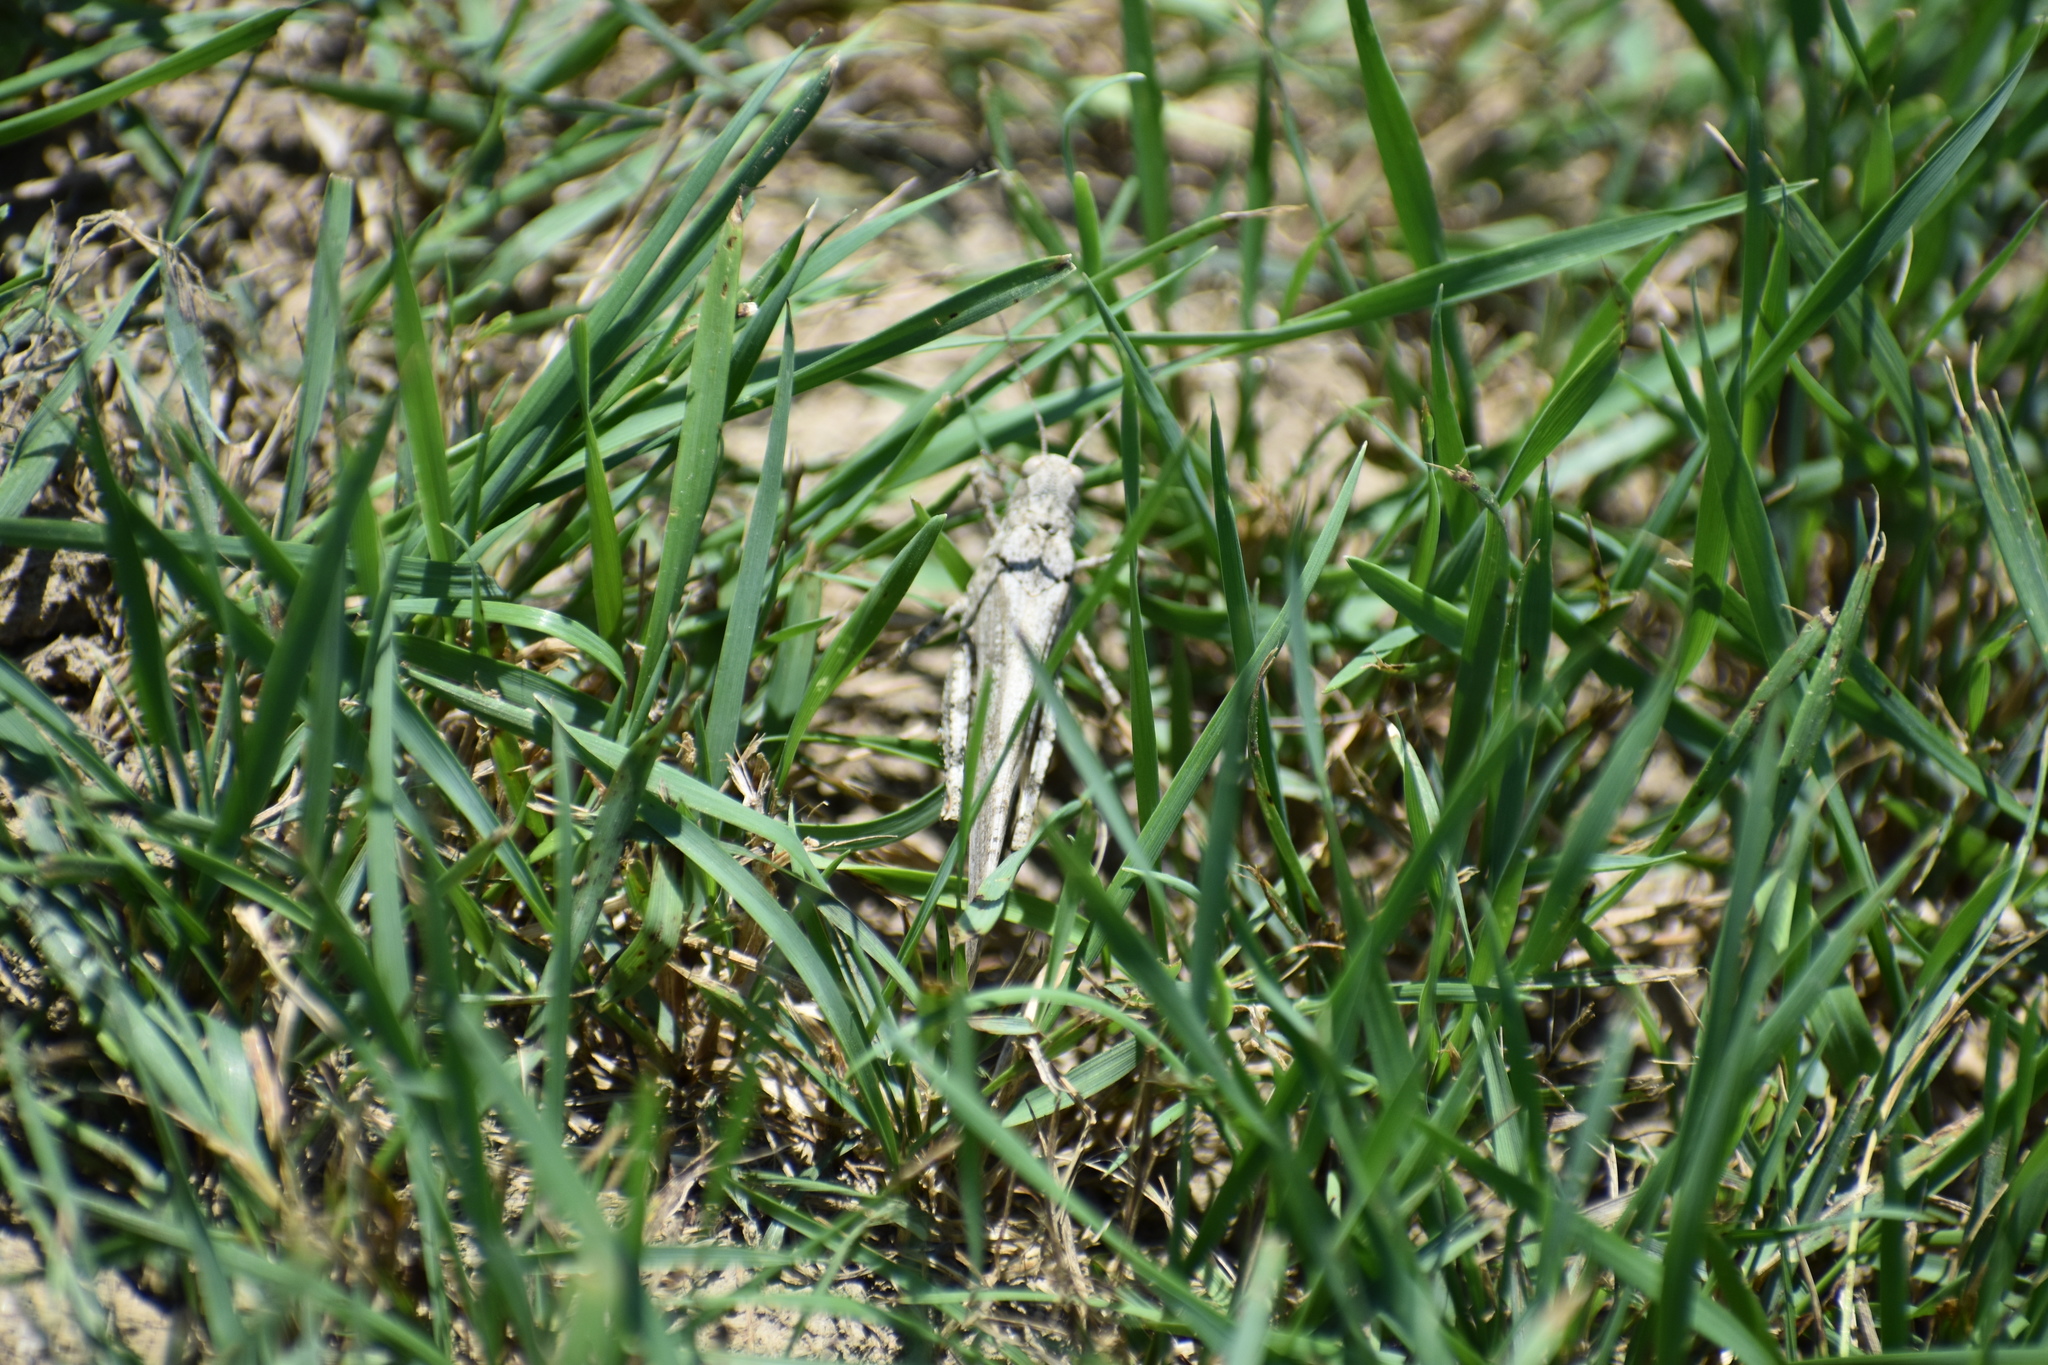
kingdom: Animalia
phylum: Arthropoda
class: Insecta
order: Orthoptera
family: Acrididae
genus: Dissosteira
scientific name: Dissosteira carolina
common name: Carolina grasshopper
